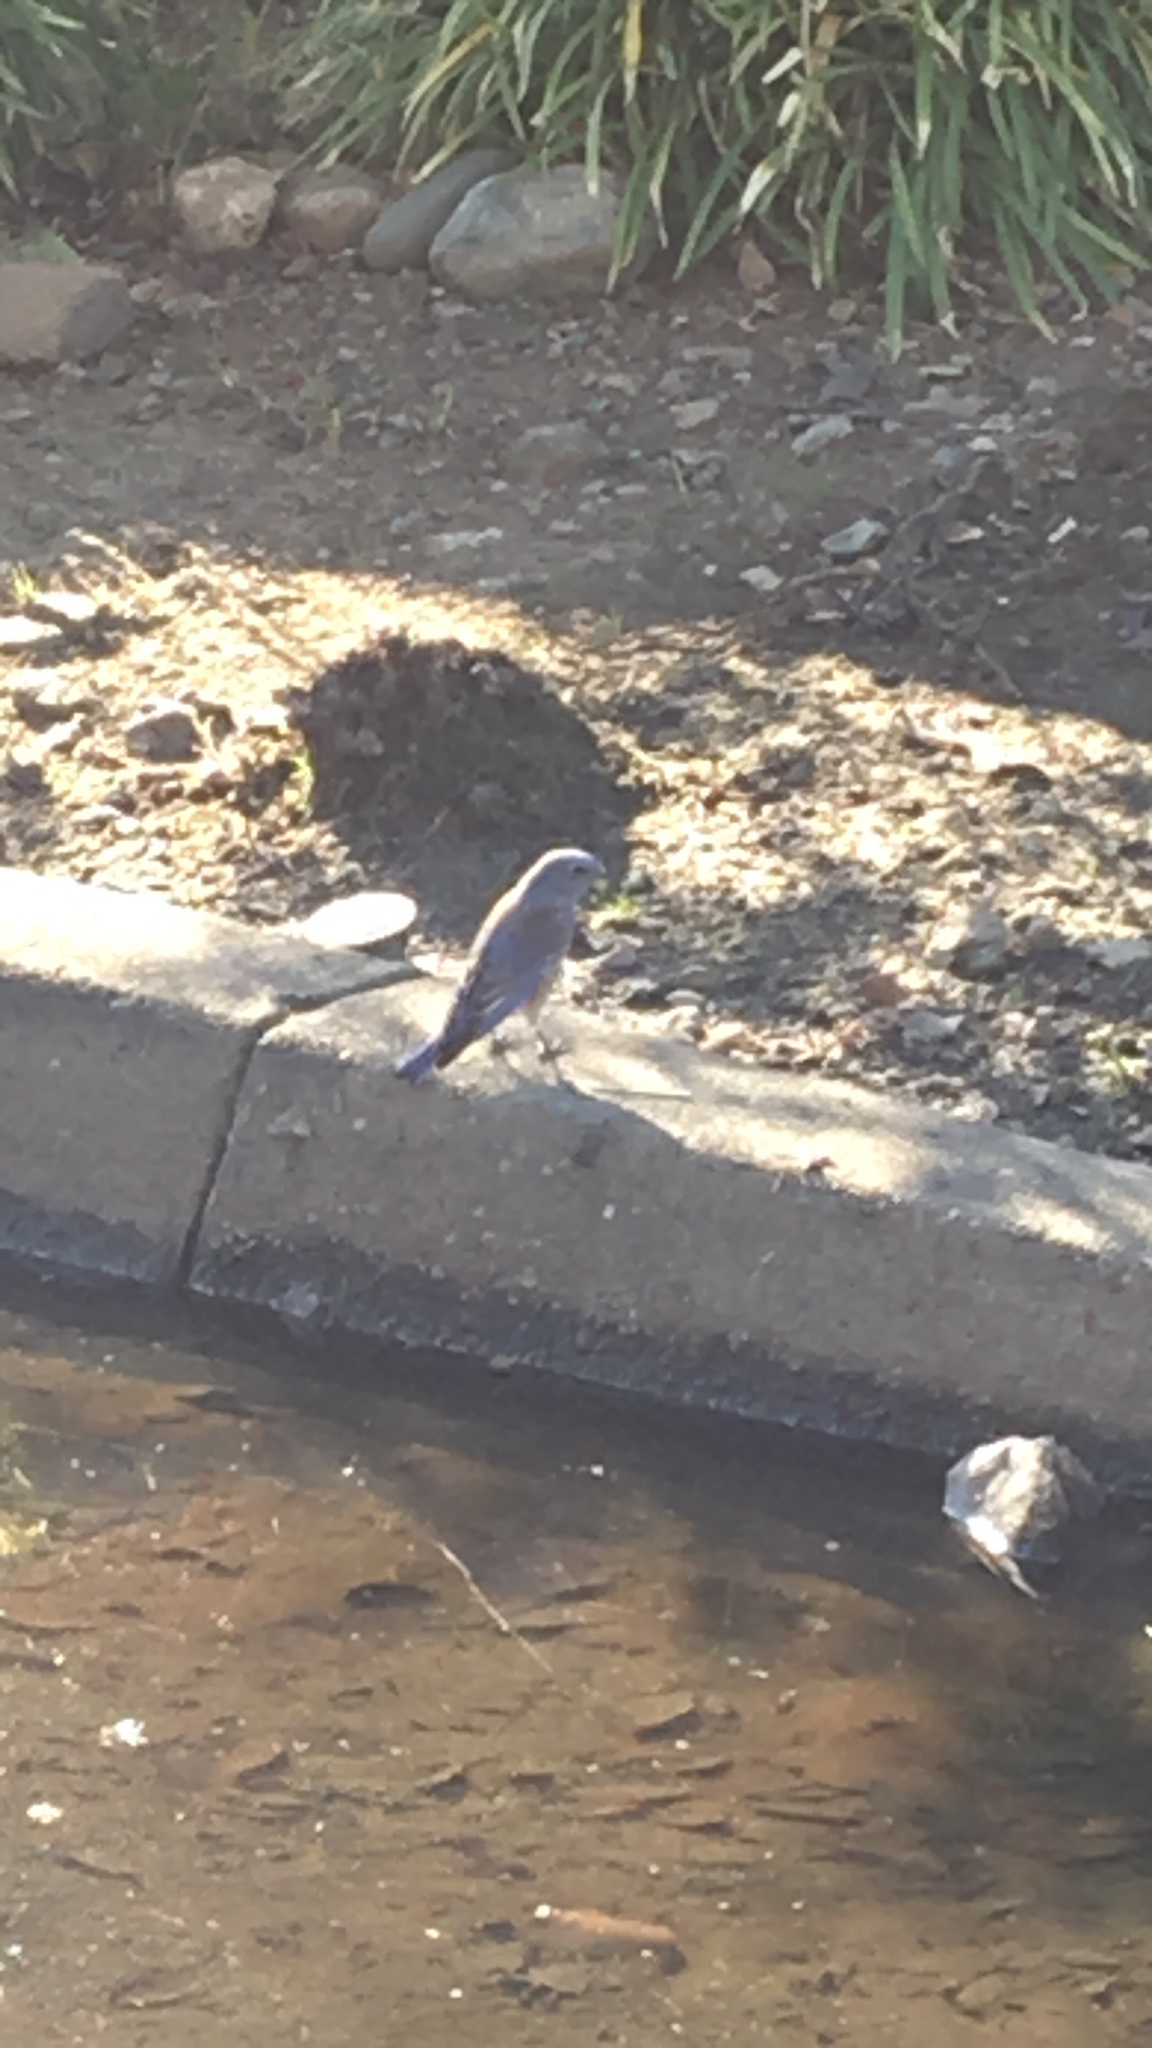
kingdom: Animalia
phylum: Chordata
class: Aves
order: Passeriformes
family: Turdidae
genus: Sialia
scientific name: Sialia mexicana
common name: Western bluebird
